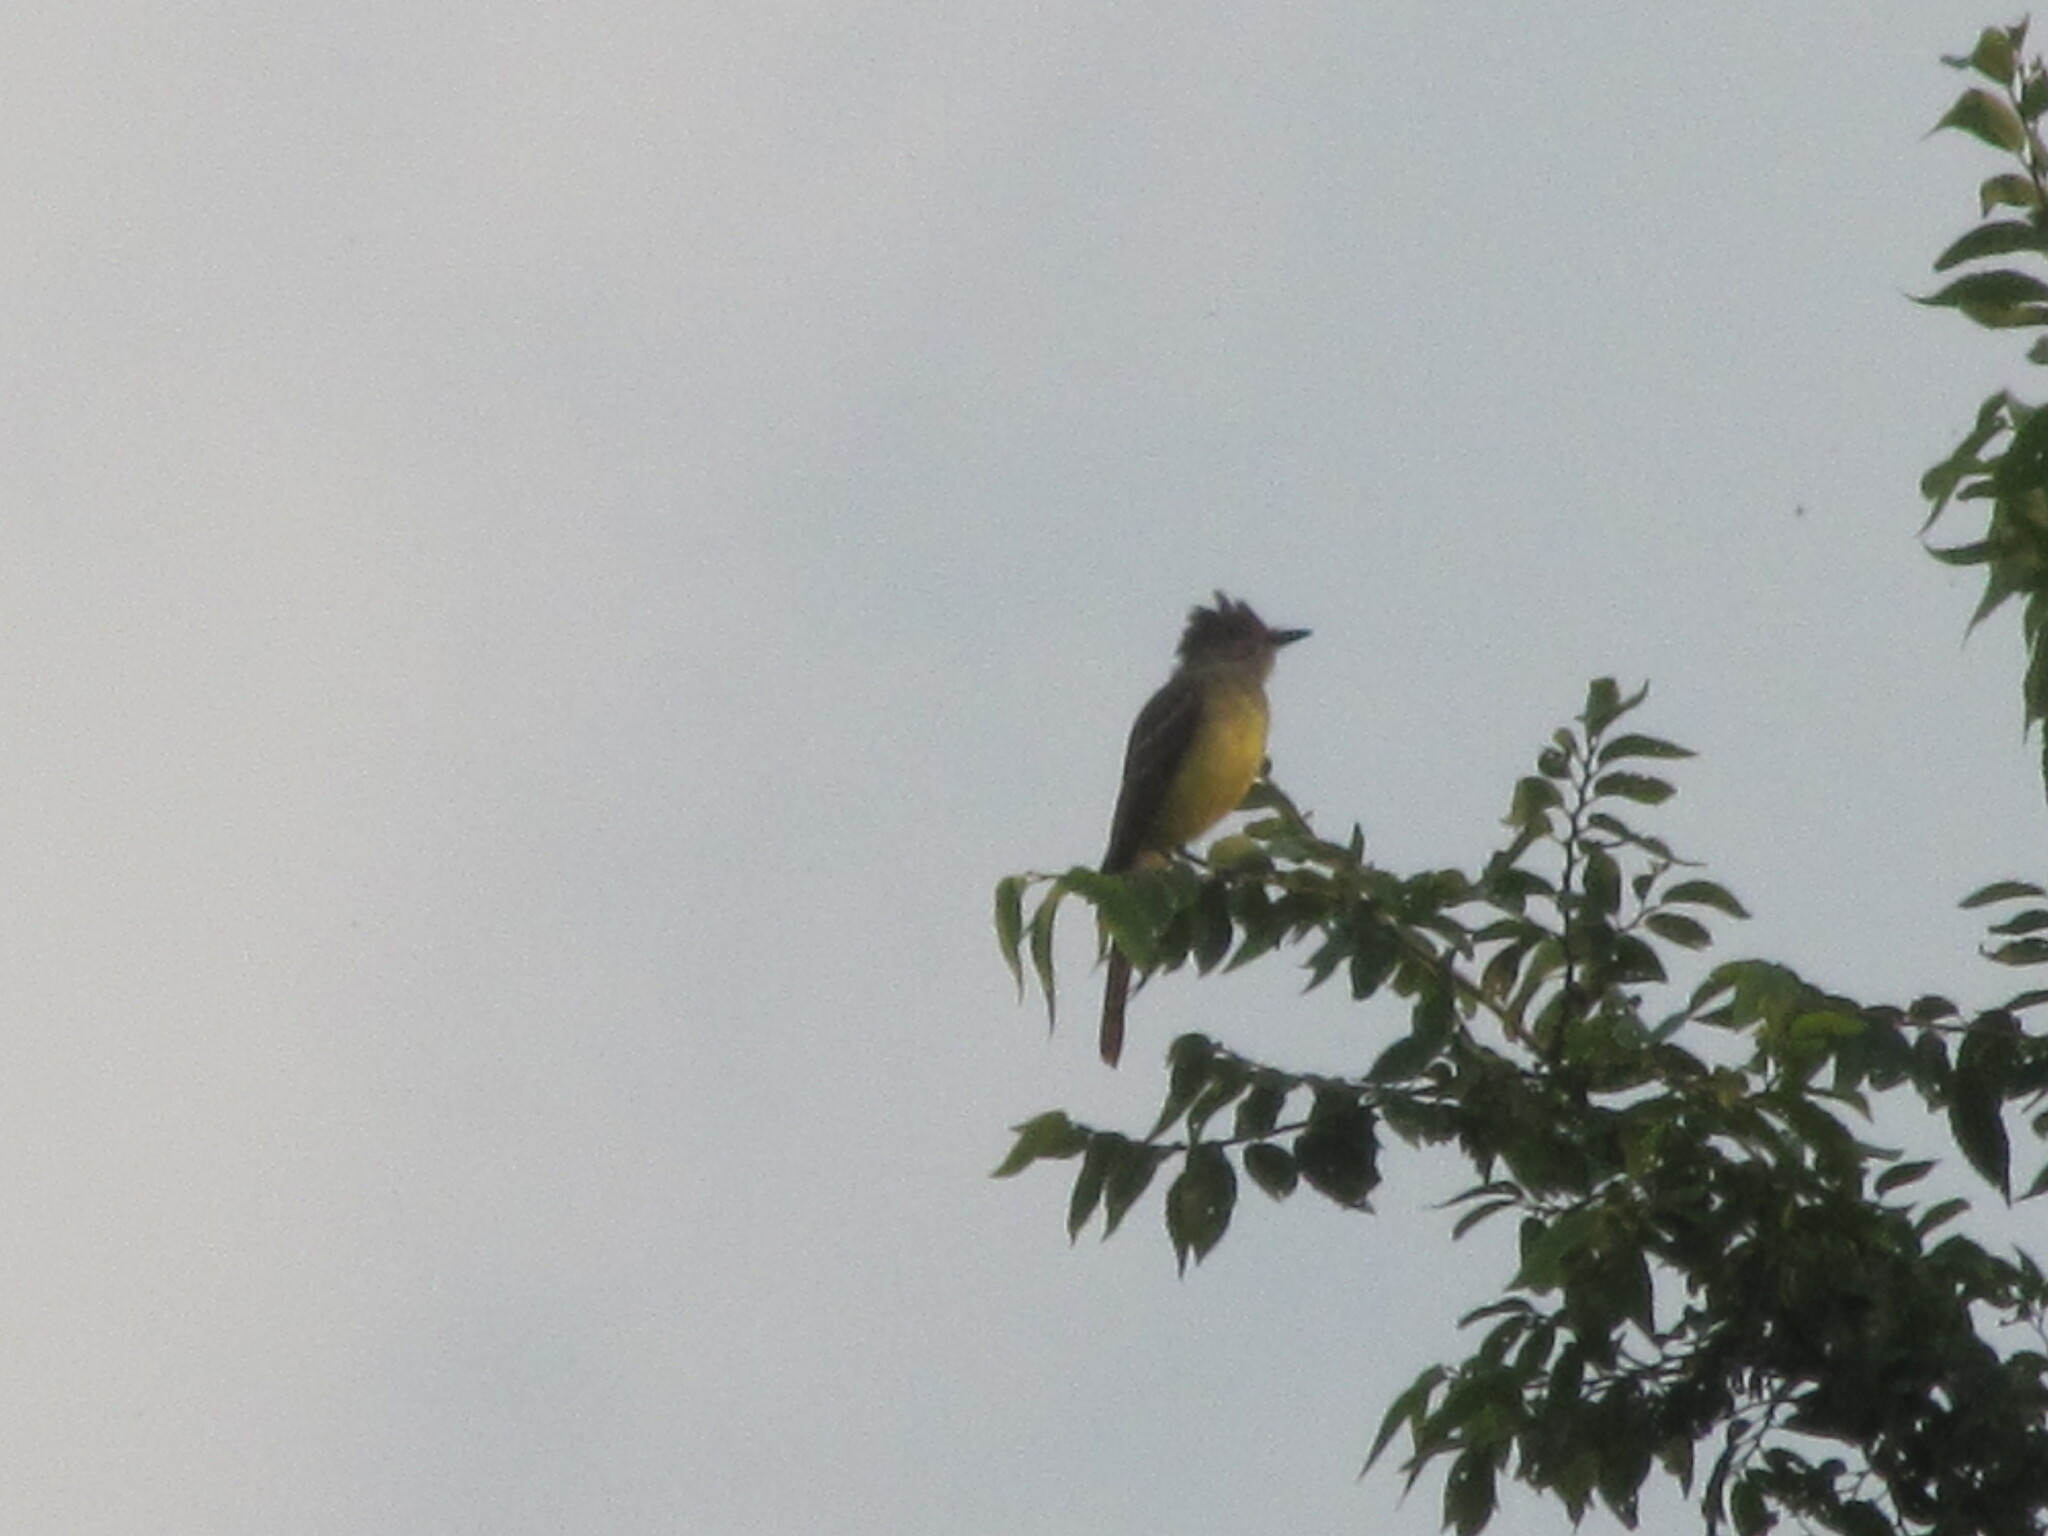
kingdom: Animalia
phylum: Chordata
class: Aves
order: Passeriformes
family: Tyrannidae
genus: Myiarchus
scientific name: Myiarchus crinitus
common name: Great crested flycatcher
